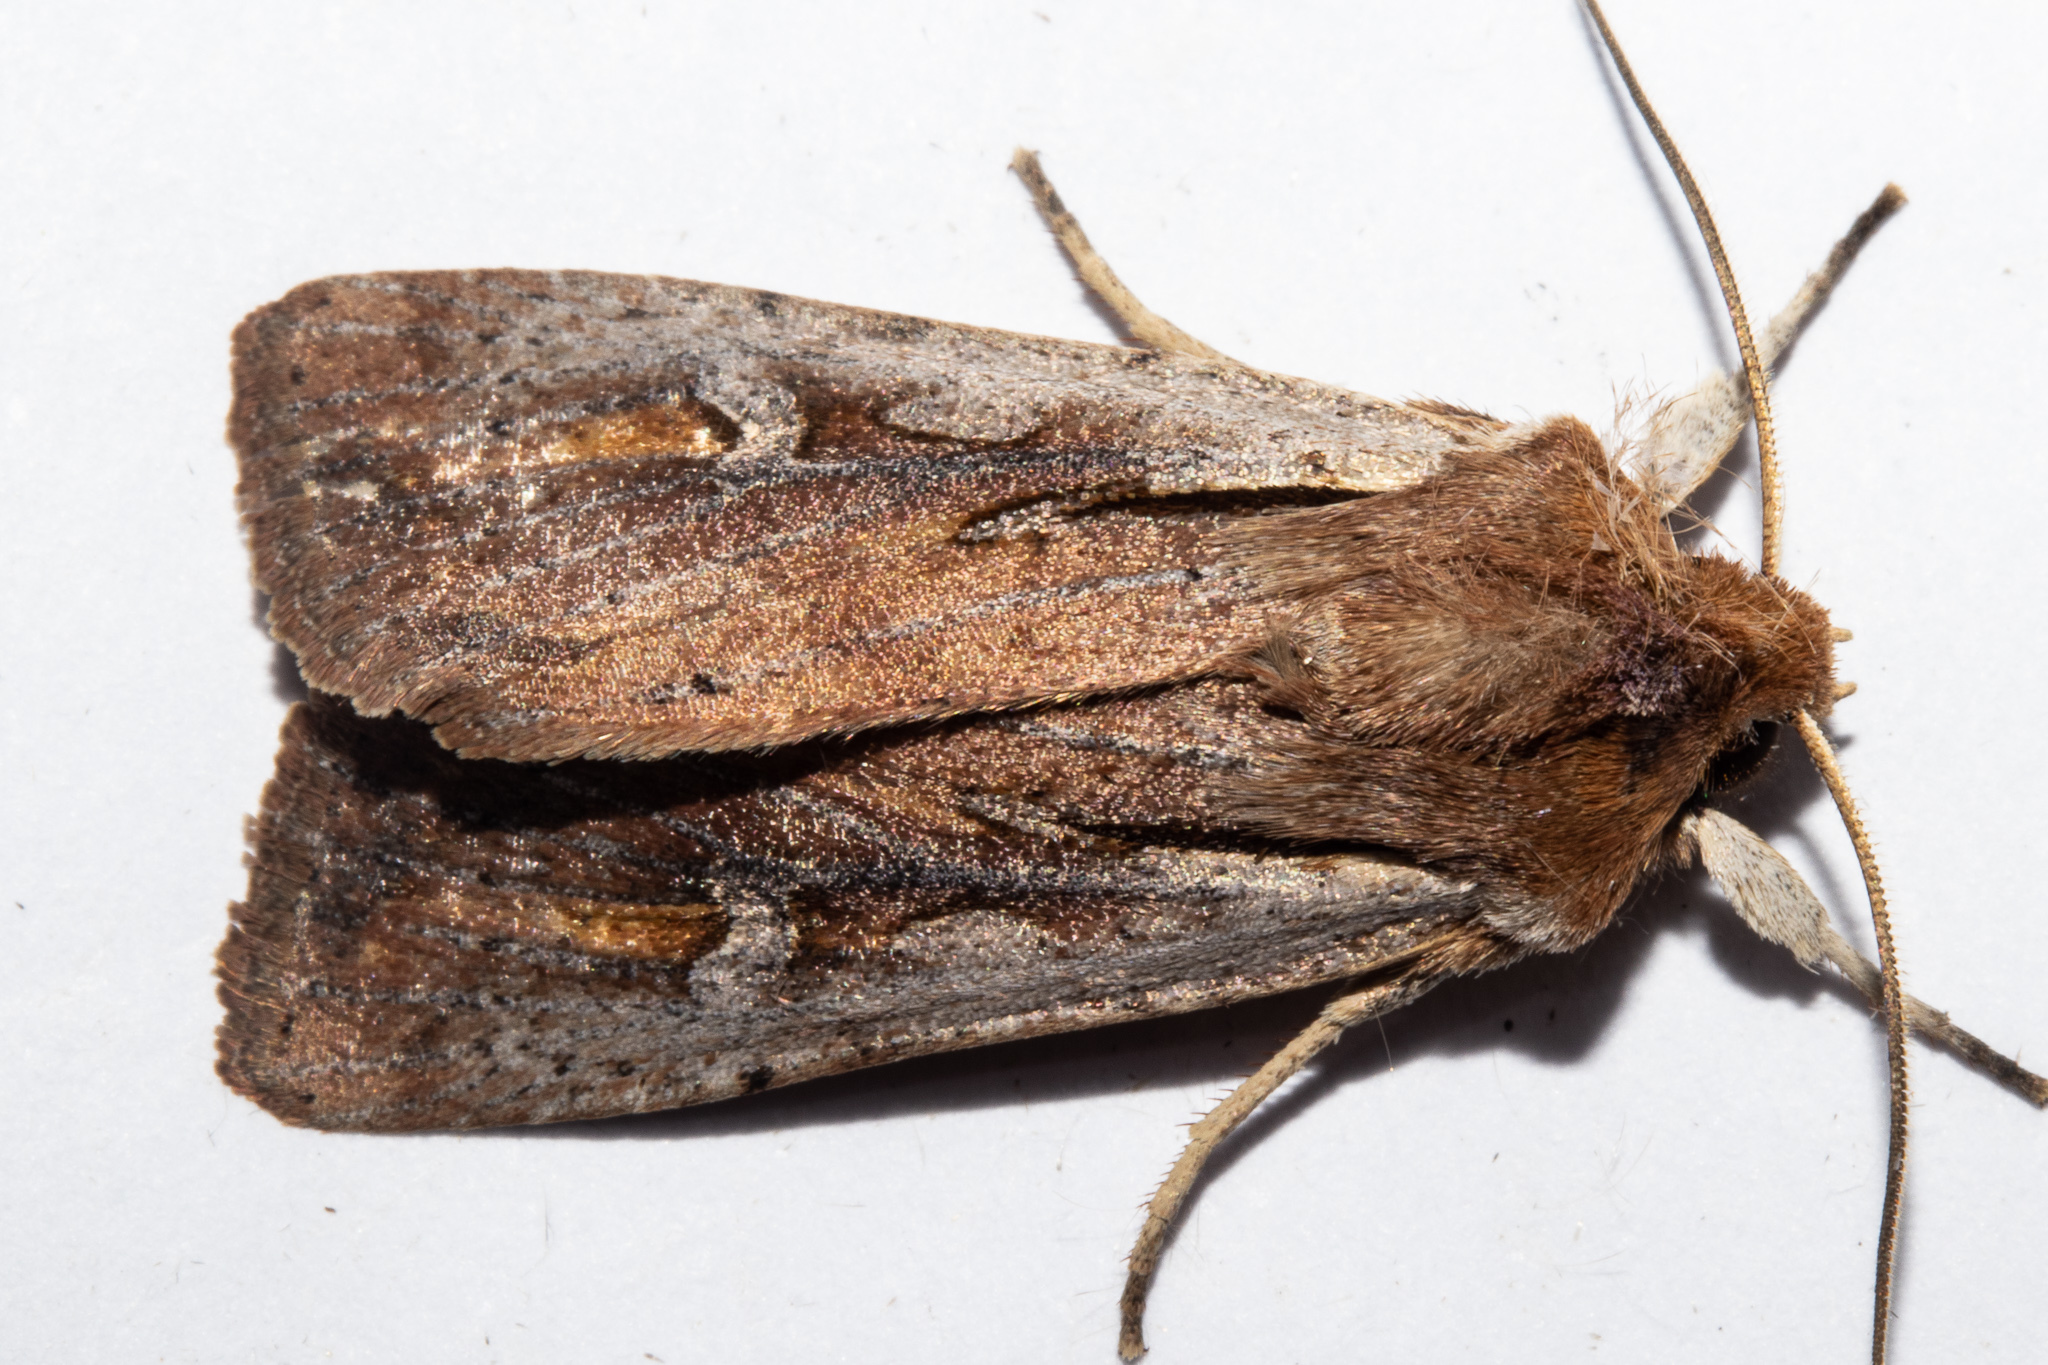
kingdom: Animalia
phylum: Arthropoda
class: Insecta
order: Lepidoptera
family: Noctuidae
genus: Ichneutica
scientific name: Ichneutica atristriga
